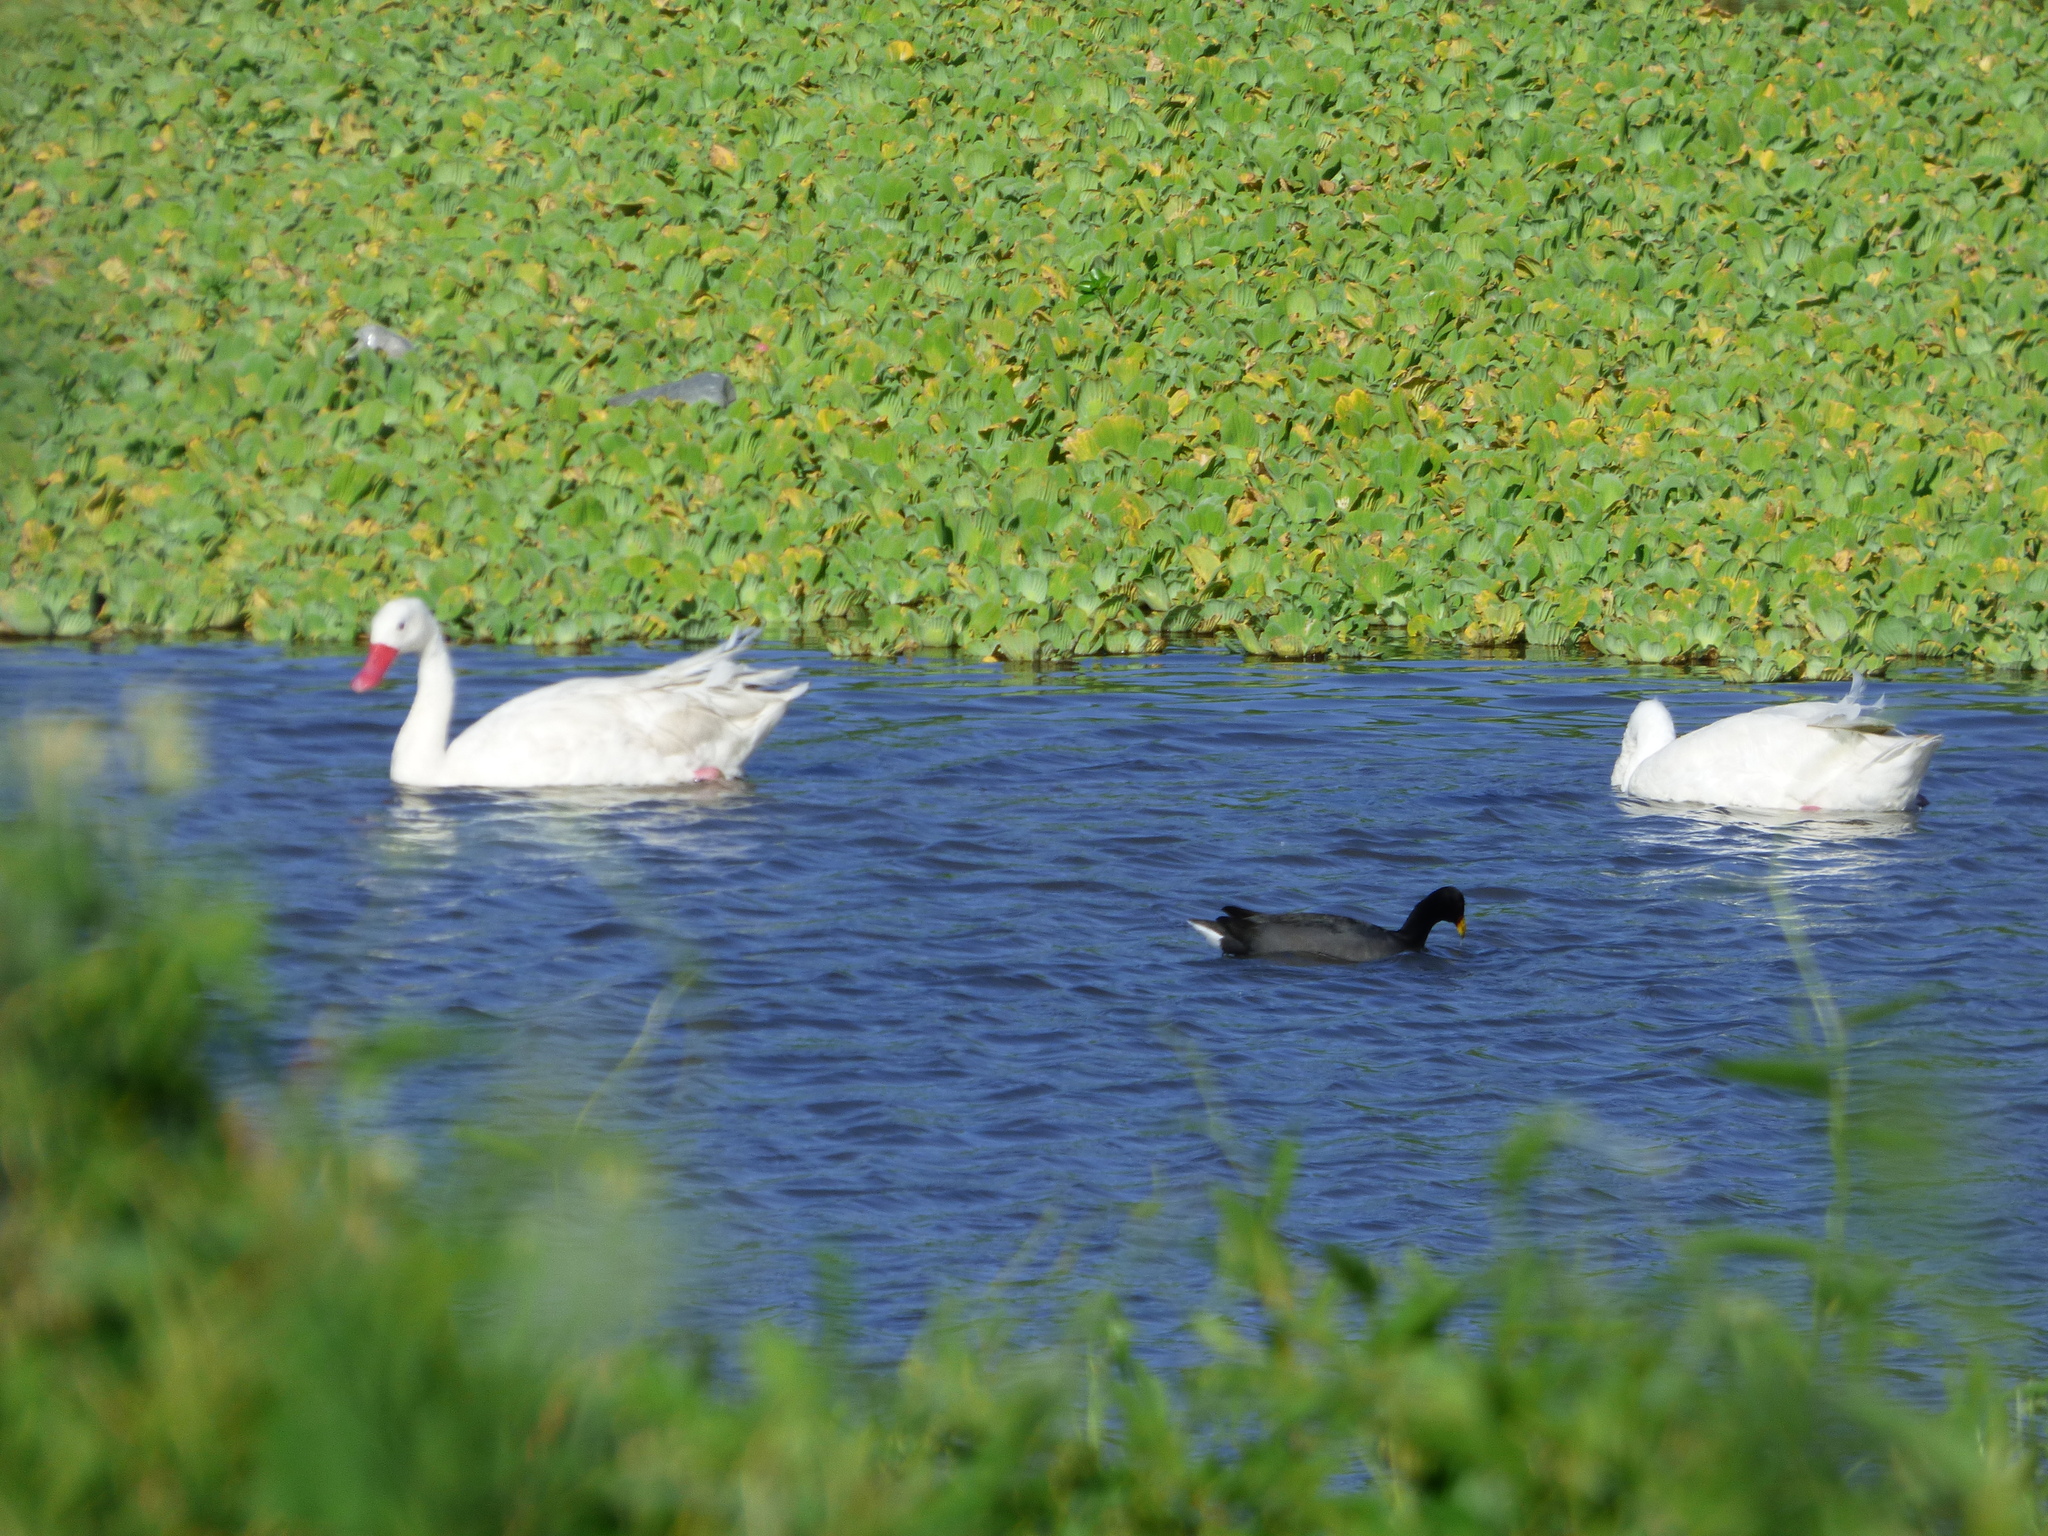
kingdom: Animalia
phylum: Chordata
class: Aves
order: Anseriformes
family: Anatidae
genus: Coscoroba
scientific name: Coscoroba coscoroba
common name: Coscoroba swan
